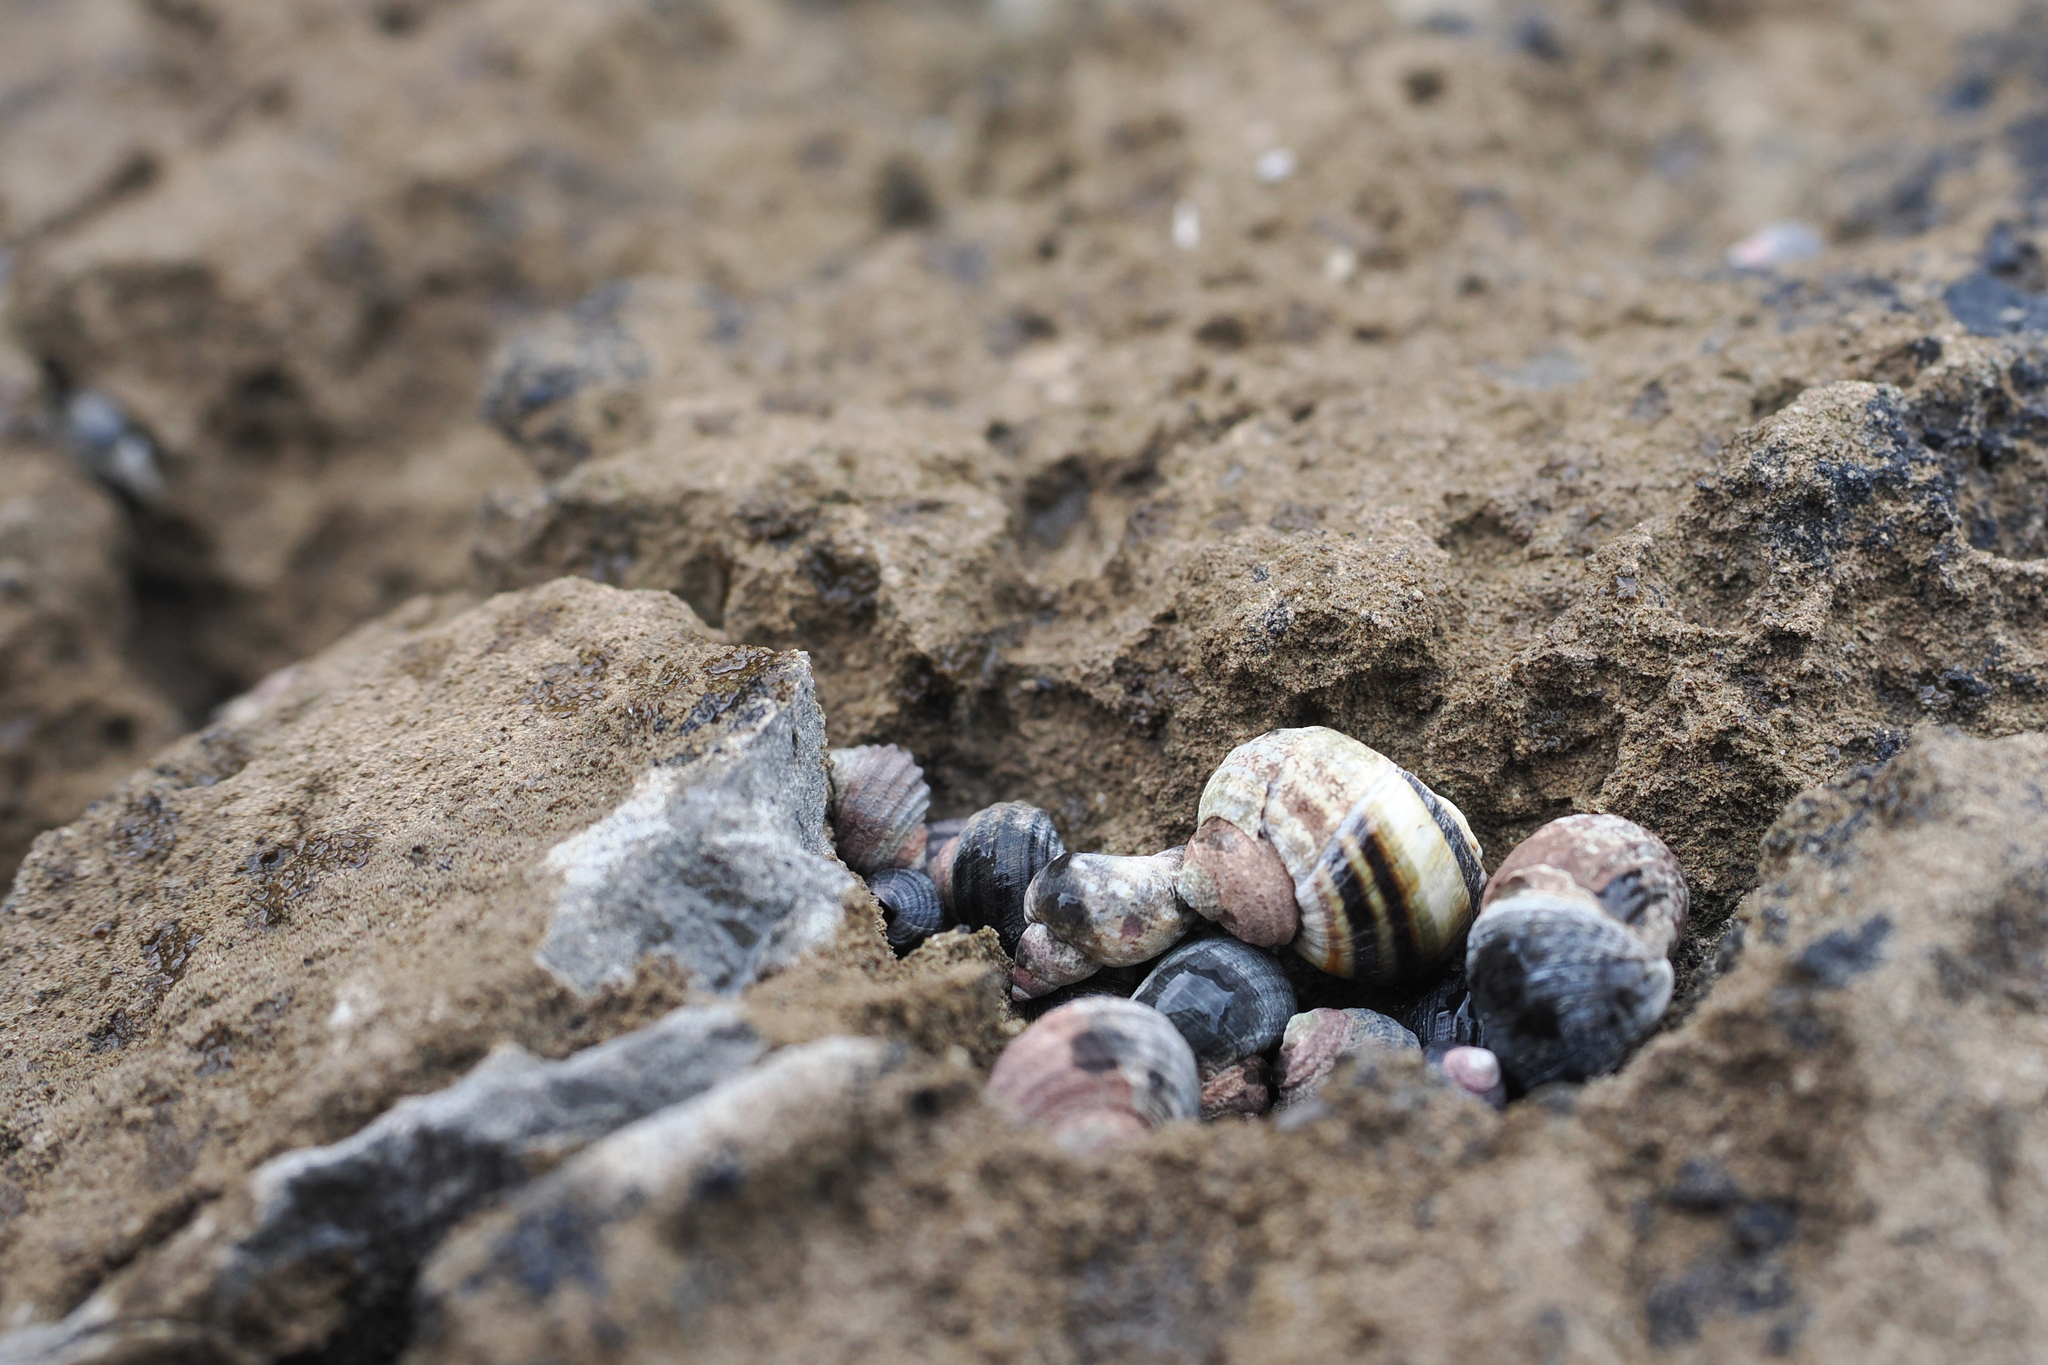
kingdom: Animalia
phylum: Mollusca
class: Gastropoda
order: Littorinimorpha
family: Littorinidae
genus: Littorina
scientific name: Littorina sitkana
